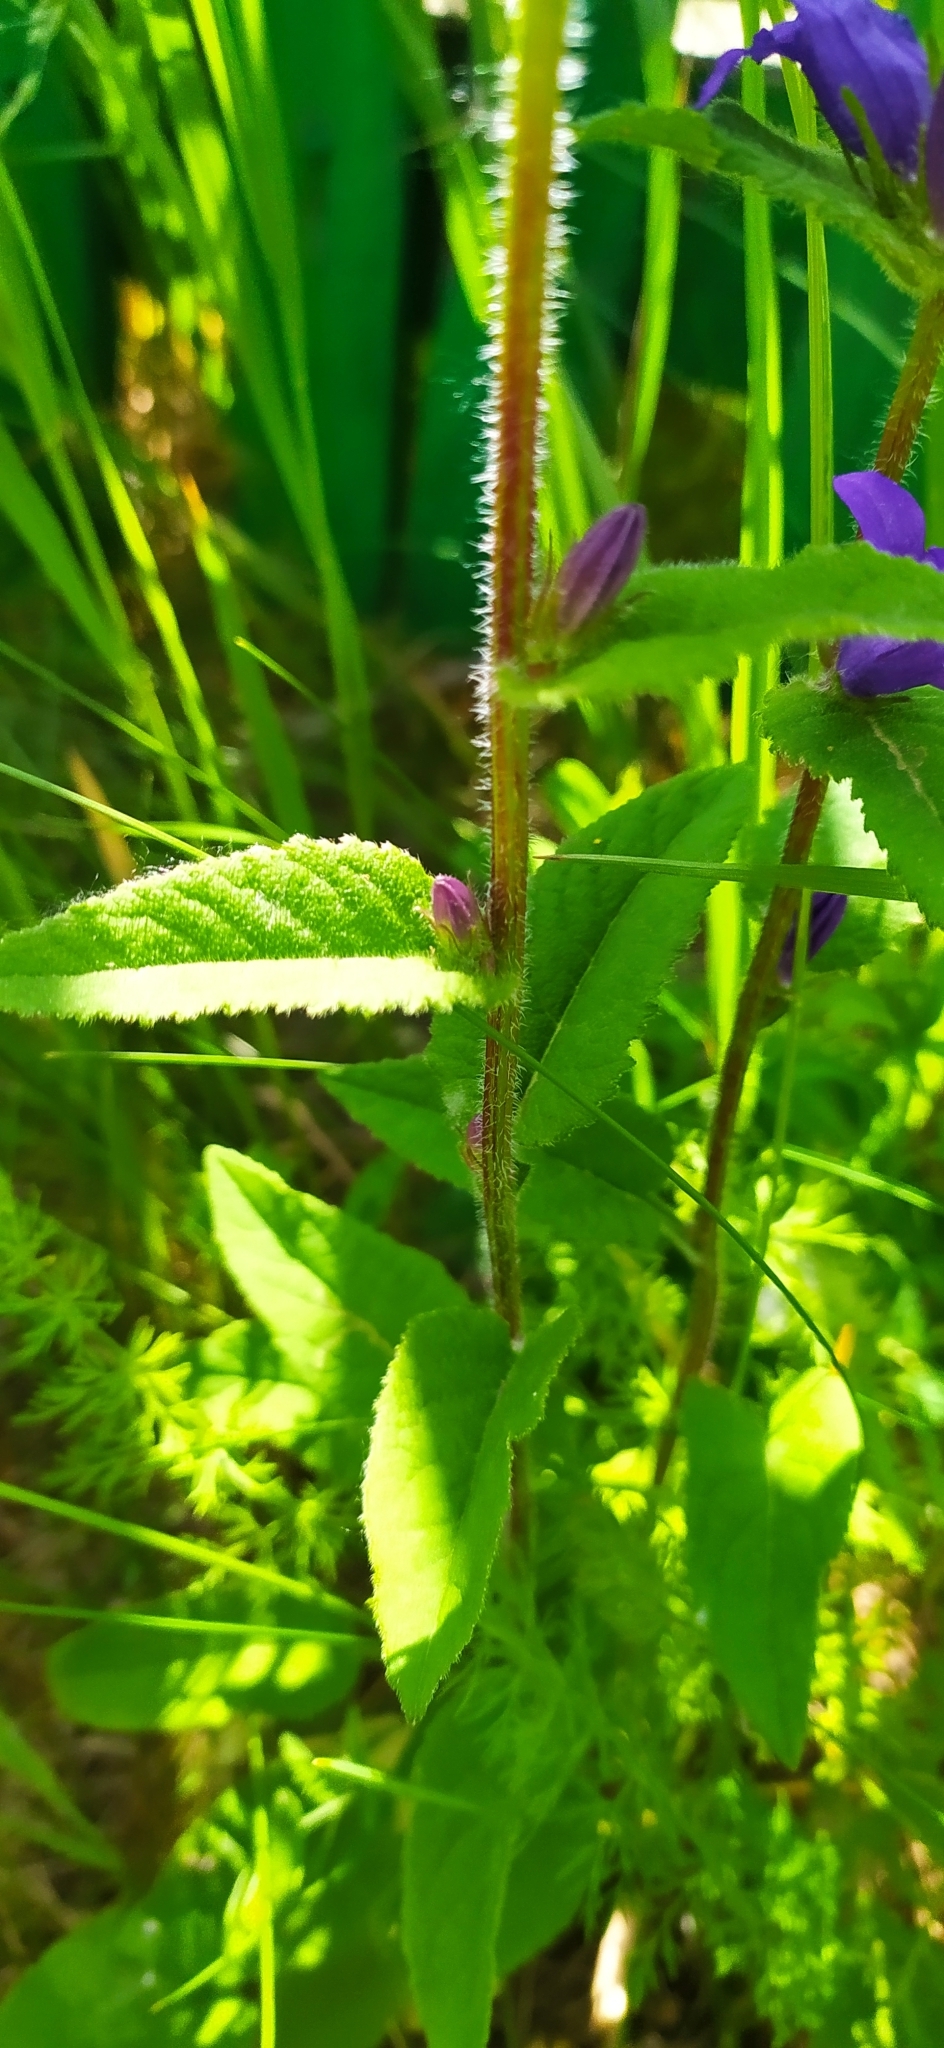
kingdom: Plantae
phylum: Tracheophyta
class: Magnoliopsida
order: Asterales
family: Campanulaceae
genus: Campanula
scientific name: Campanula glomerata
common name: Clustered bellflower
